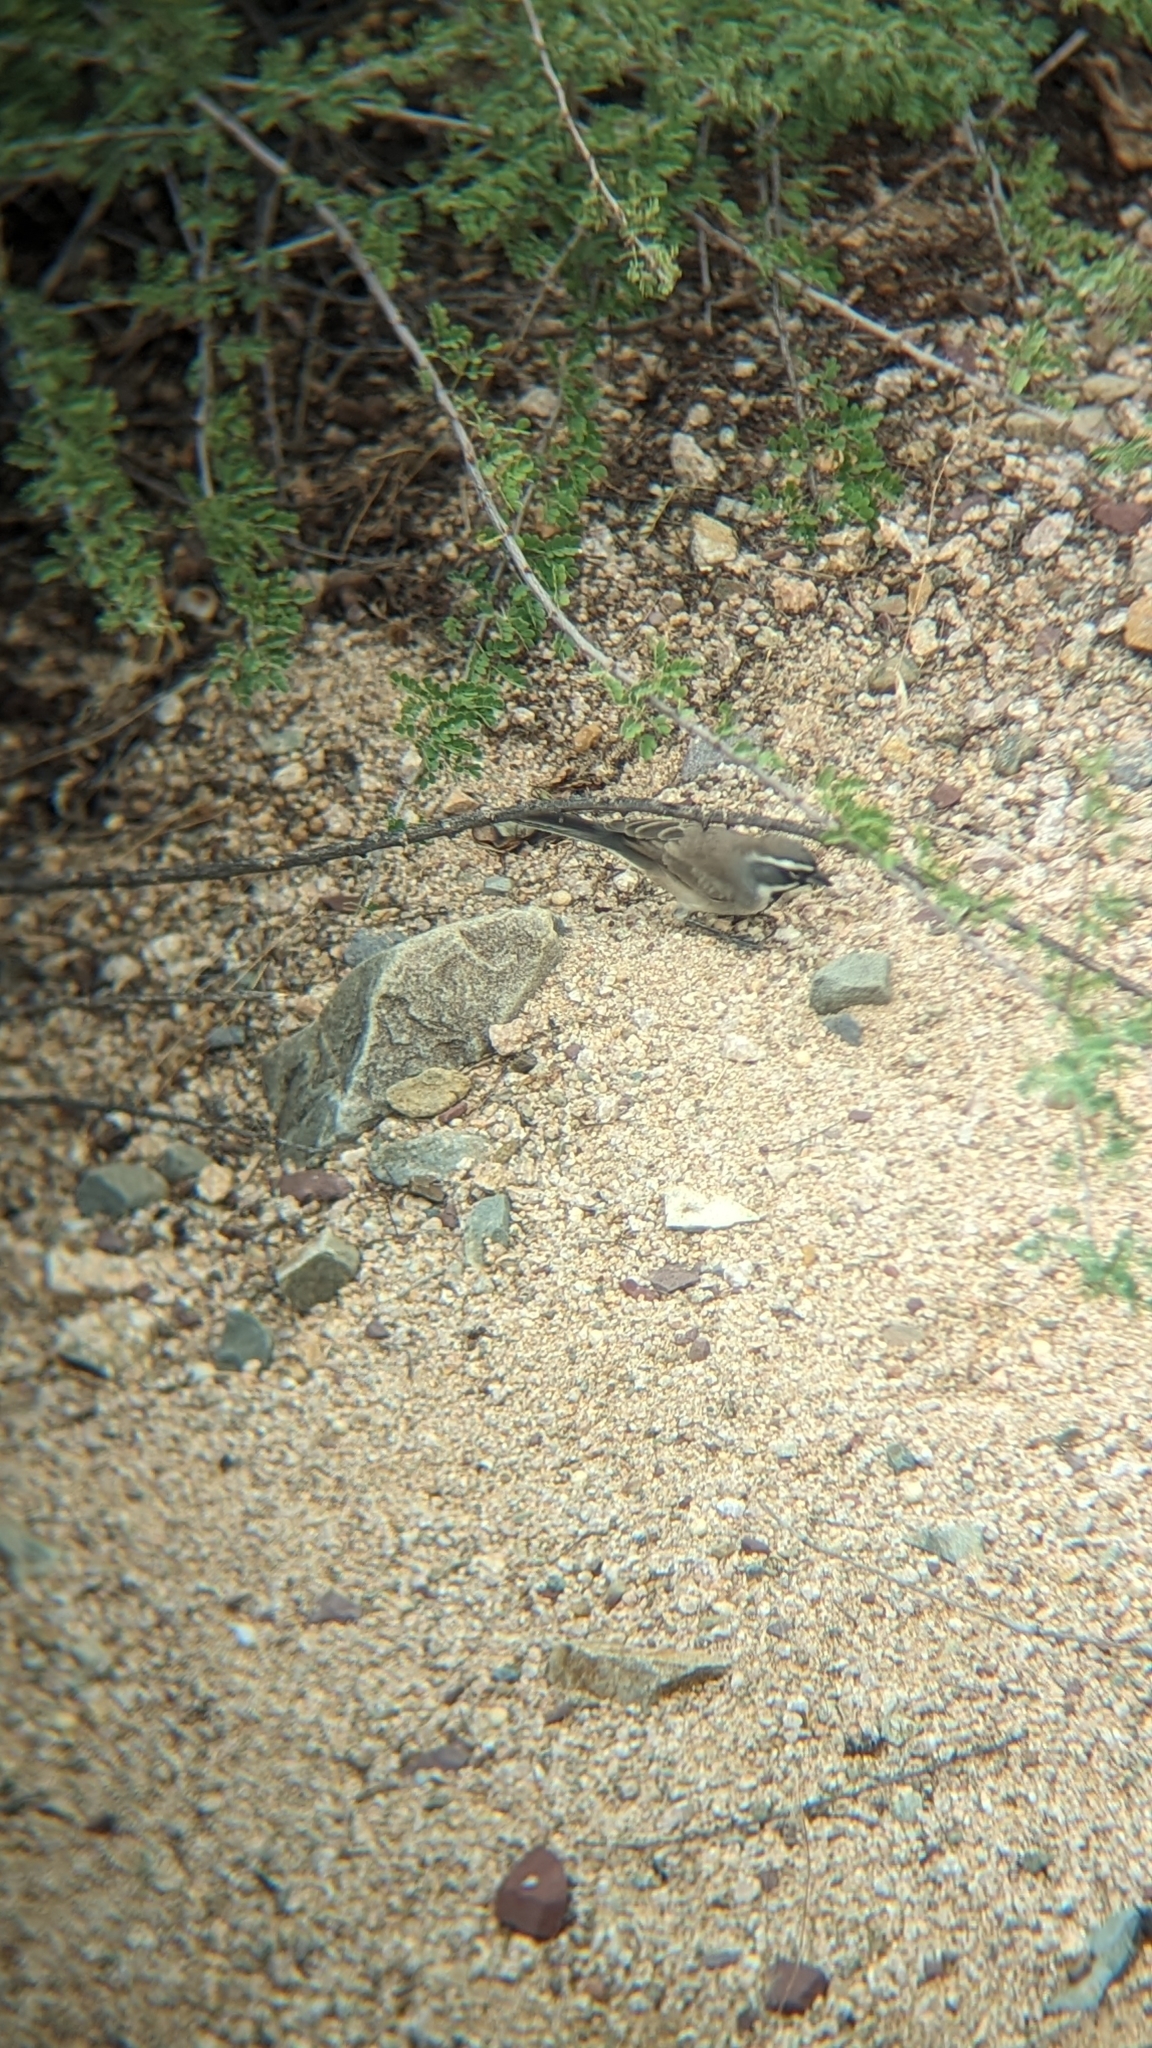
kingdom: Animalia
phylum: Chordata
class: Aves
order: Passeriformes
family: Passerellidae
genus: Amphispiza
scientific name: Amphispiza bilineata
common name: Black-throated sparrow
